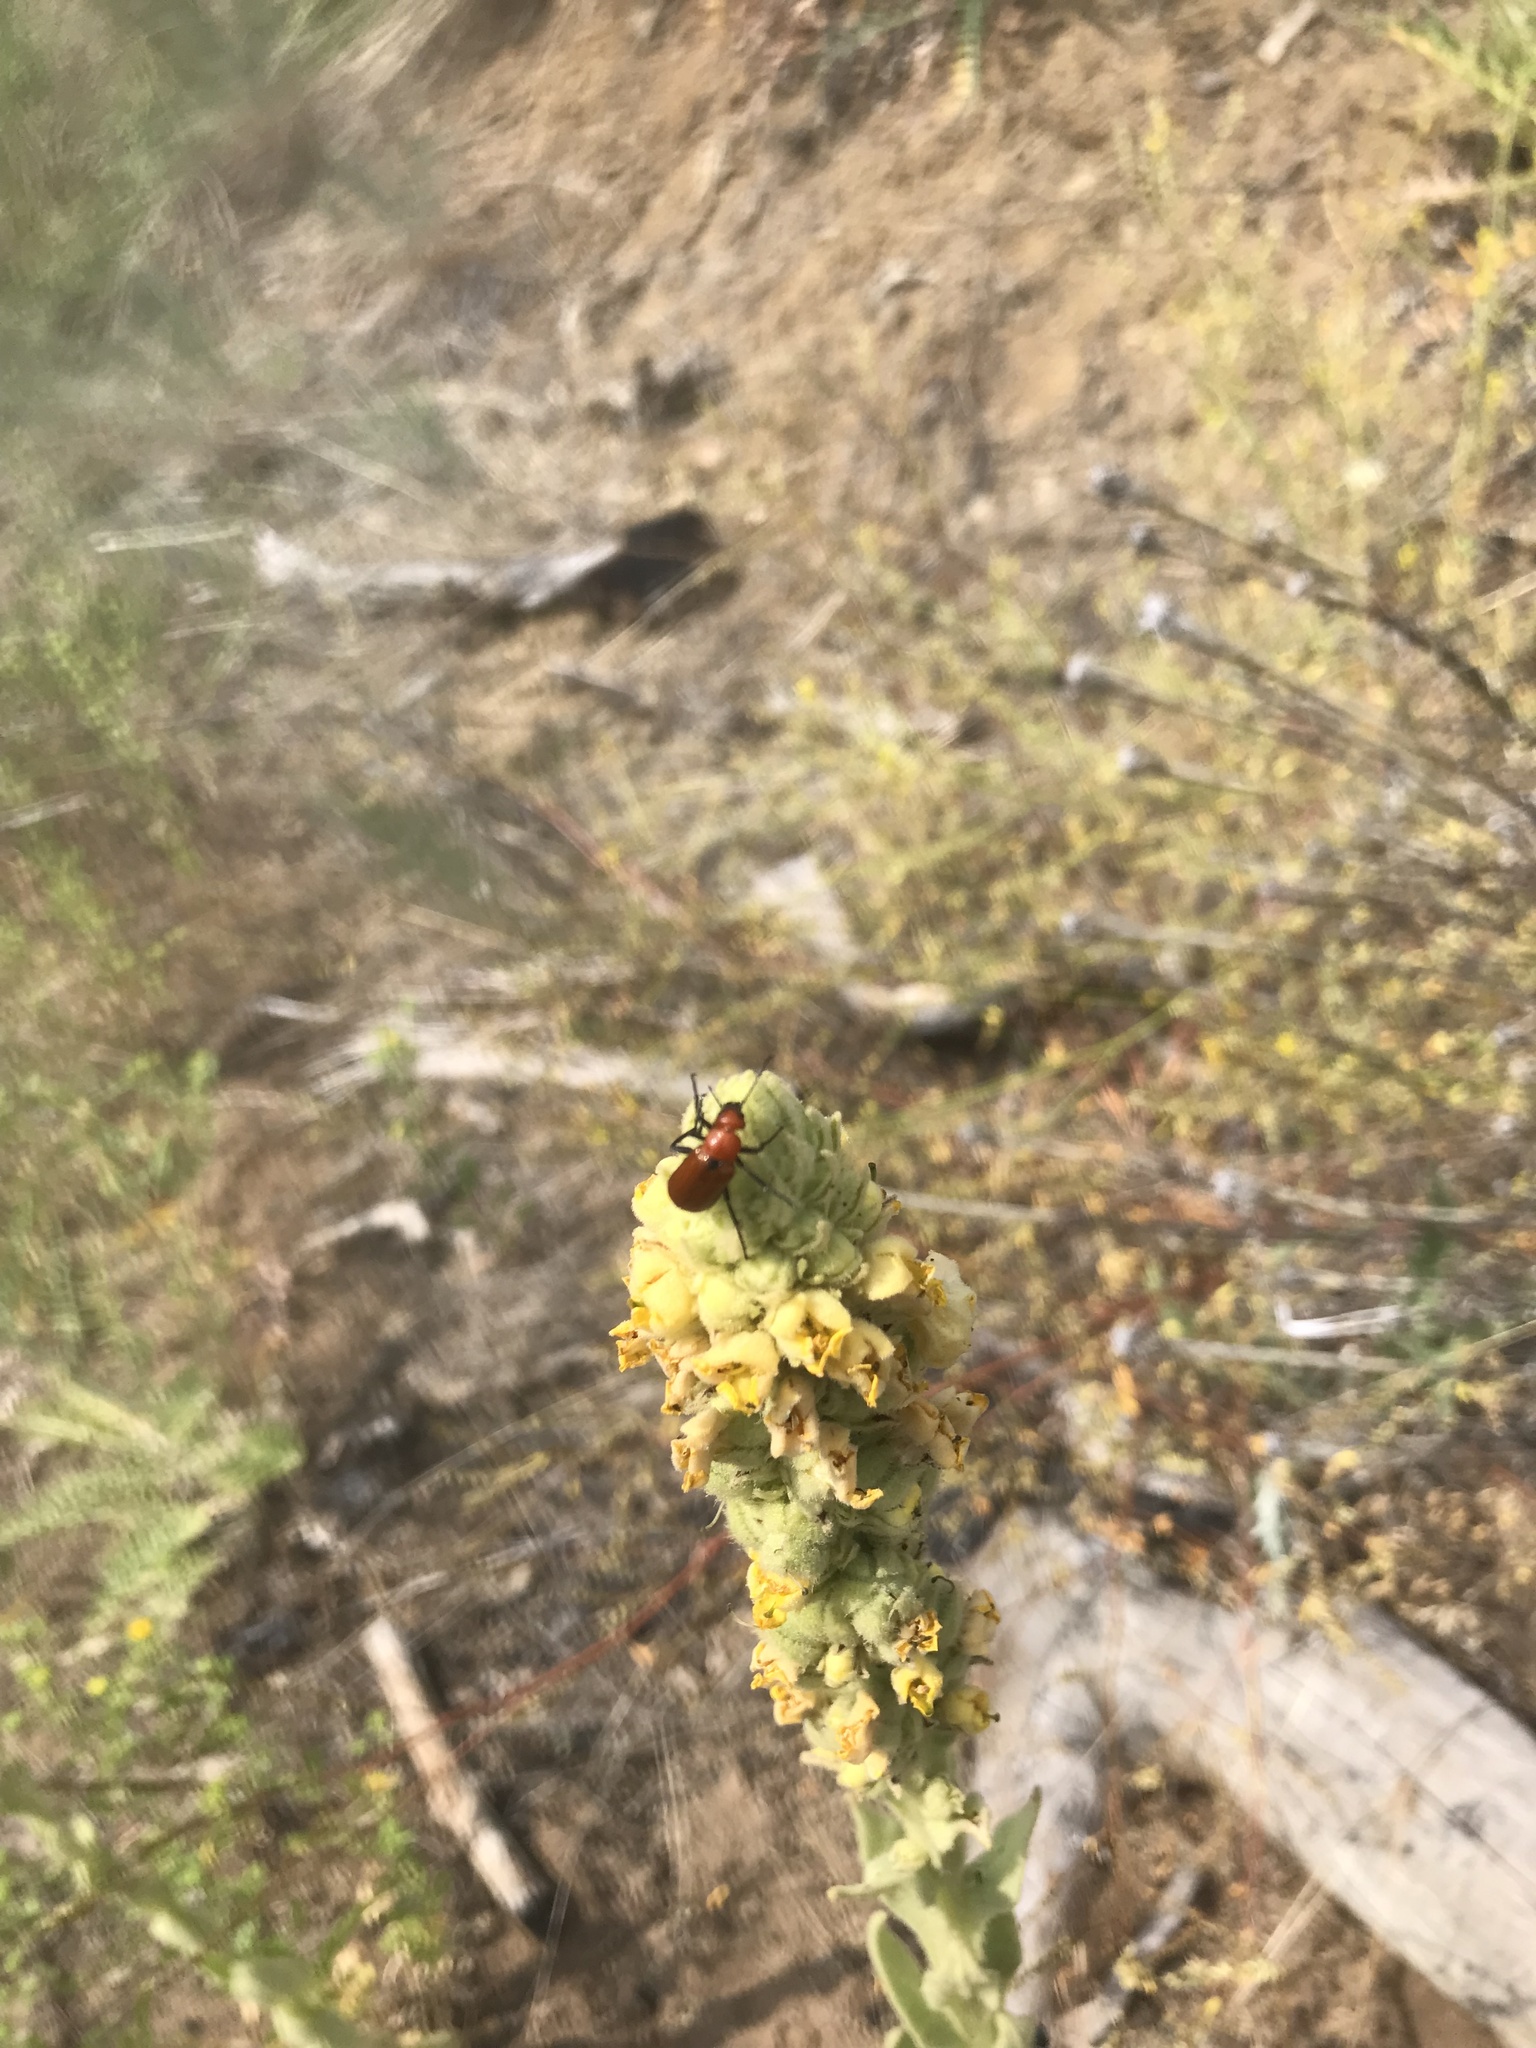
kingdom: Animalia
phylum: Arthropoda
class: Insecta
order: Coleoptera
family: Meloidae
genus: Nemognatha
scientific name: Nemognatha lutea
